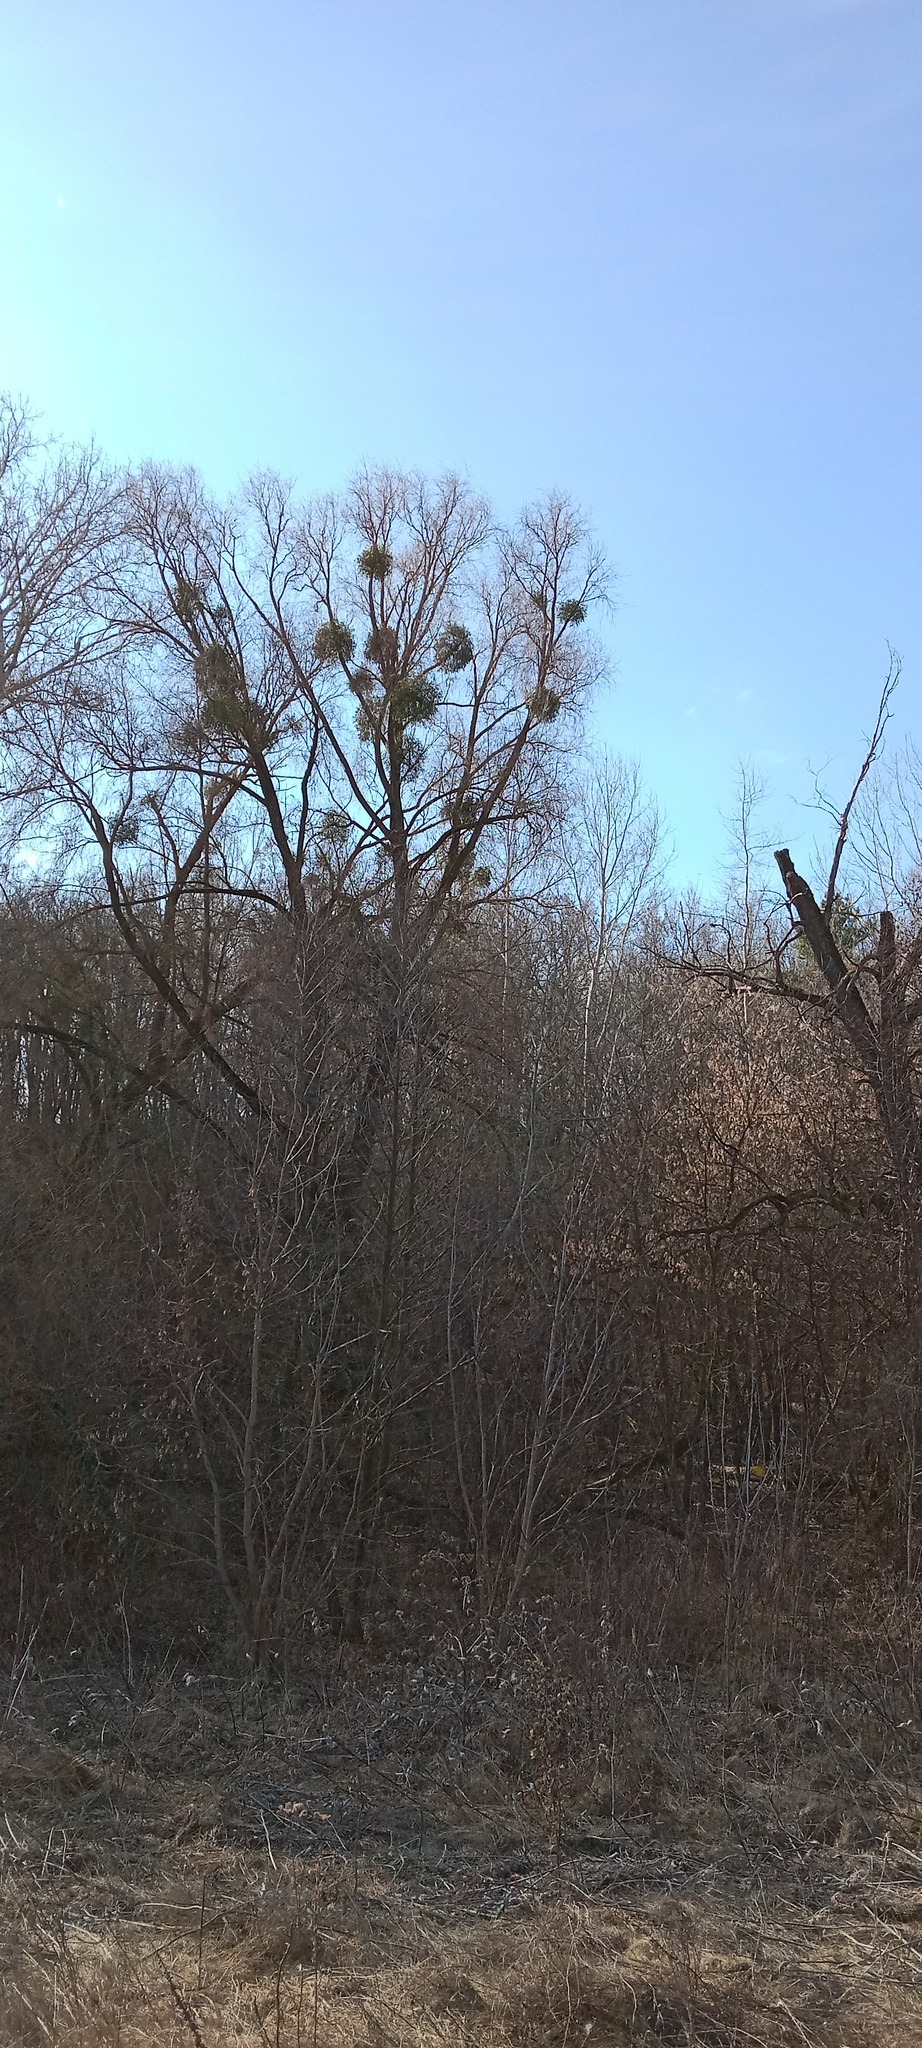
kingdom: Plantae
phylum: Tracheophyta
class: Magnoliopsida
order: Santalales
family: Viscaceae
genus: Viscum
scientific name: Viscum album
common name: Mistletoe
